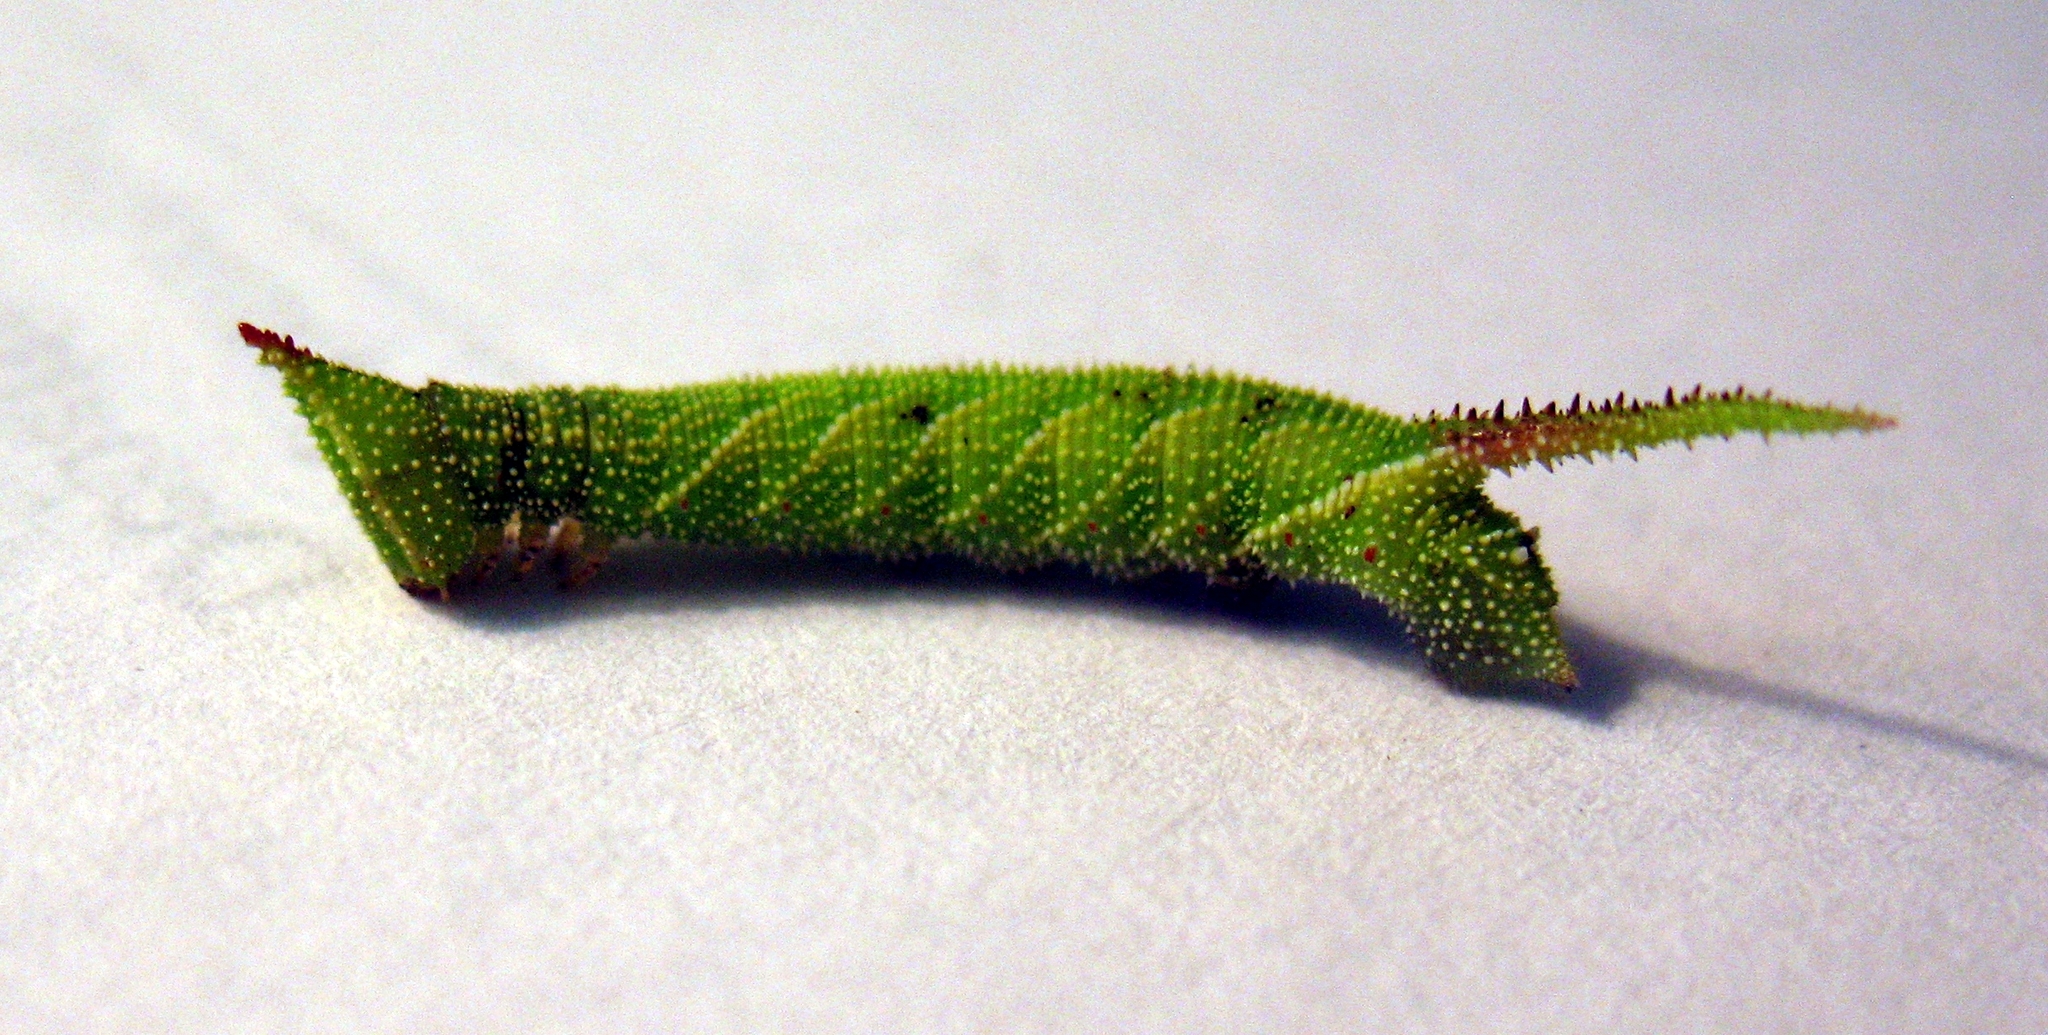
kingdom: Animalia
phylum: Arthropoda
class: Insecta
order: Lepidoptera
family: Sphingidae
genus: Amorpha
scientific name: Amorpha juglandis
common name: Walnut sphinx
